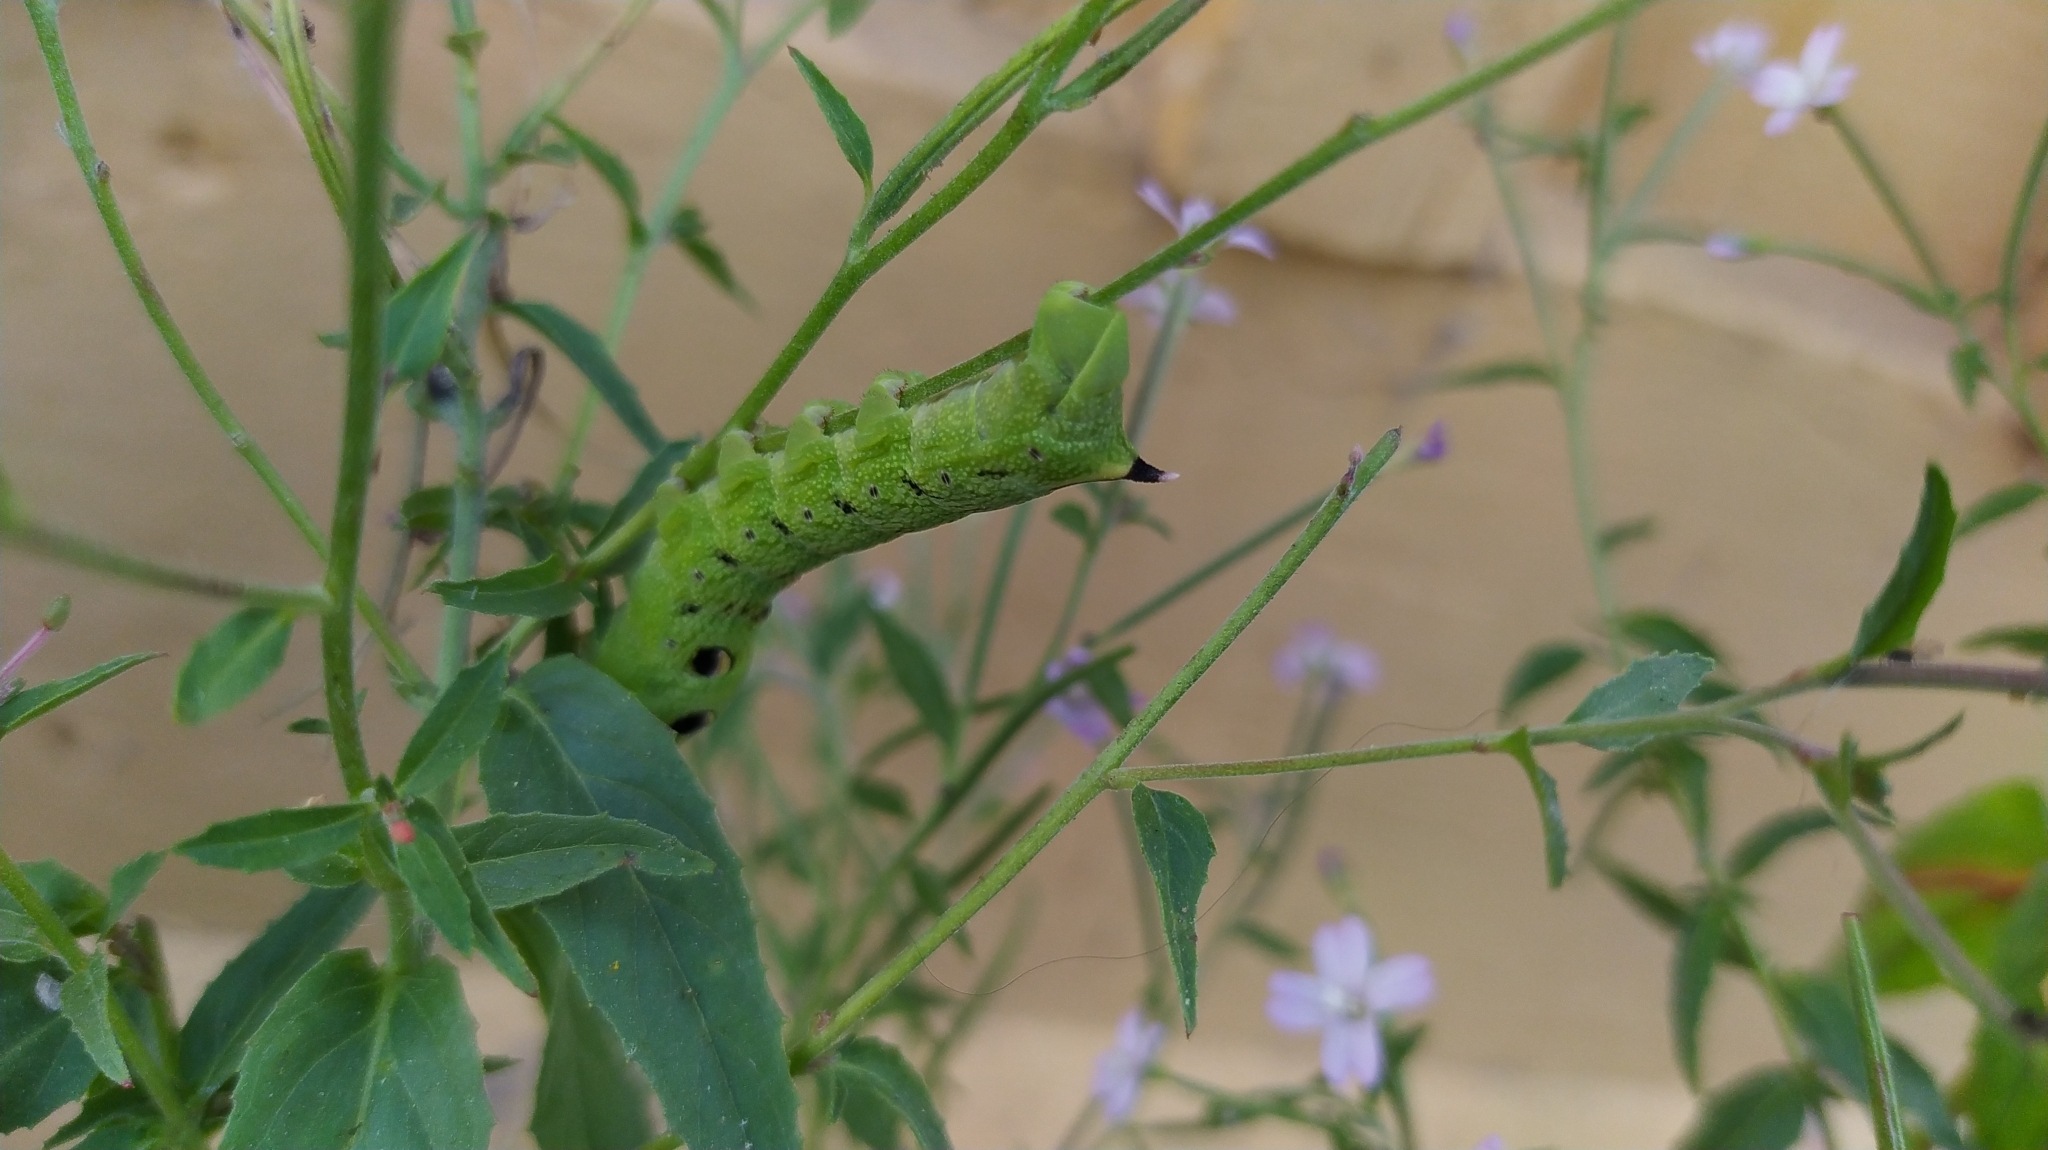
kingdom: Animalia
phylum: Arthropoda
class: Insecta
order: Lepidoptera
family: Sphingidae
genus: Deilephila
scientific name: Deilephila elpenor
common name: Elephant hawk-moth
